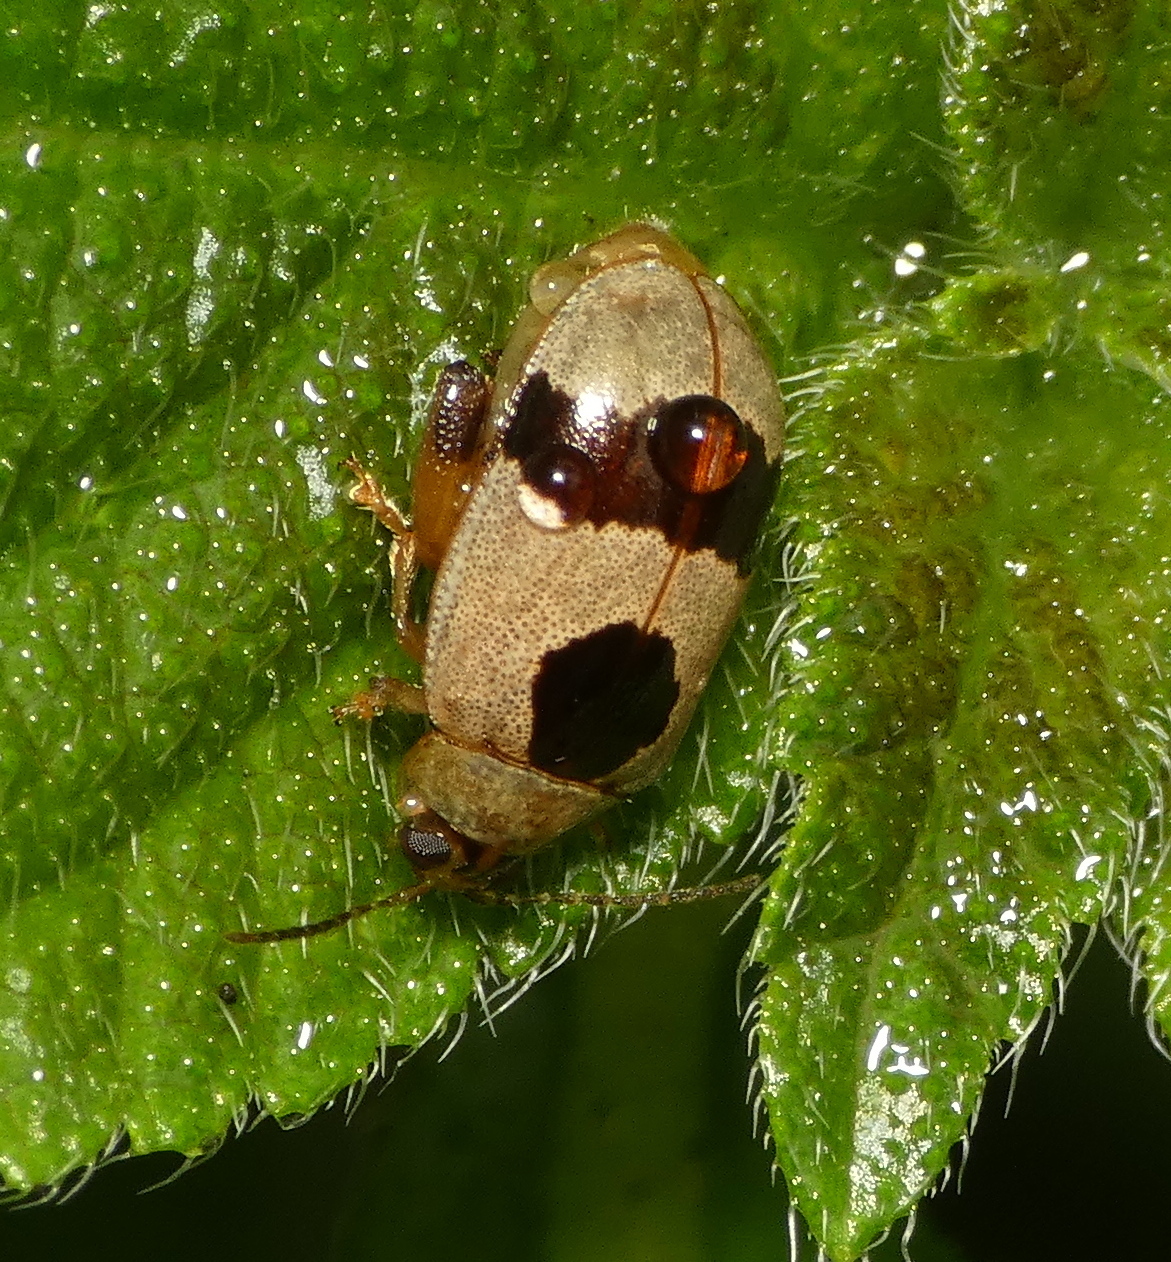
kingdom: Animalia
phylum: Arthropoda
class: Insecta
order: Coleoptera
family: Chrysomelidae
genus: Alagoasa
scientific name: Alagoasa
